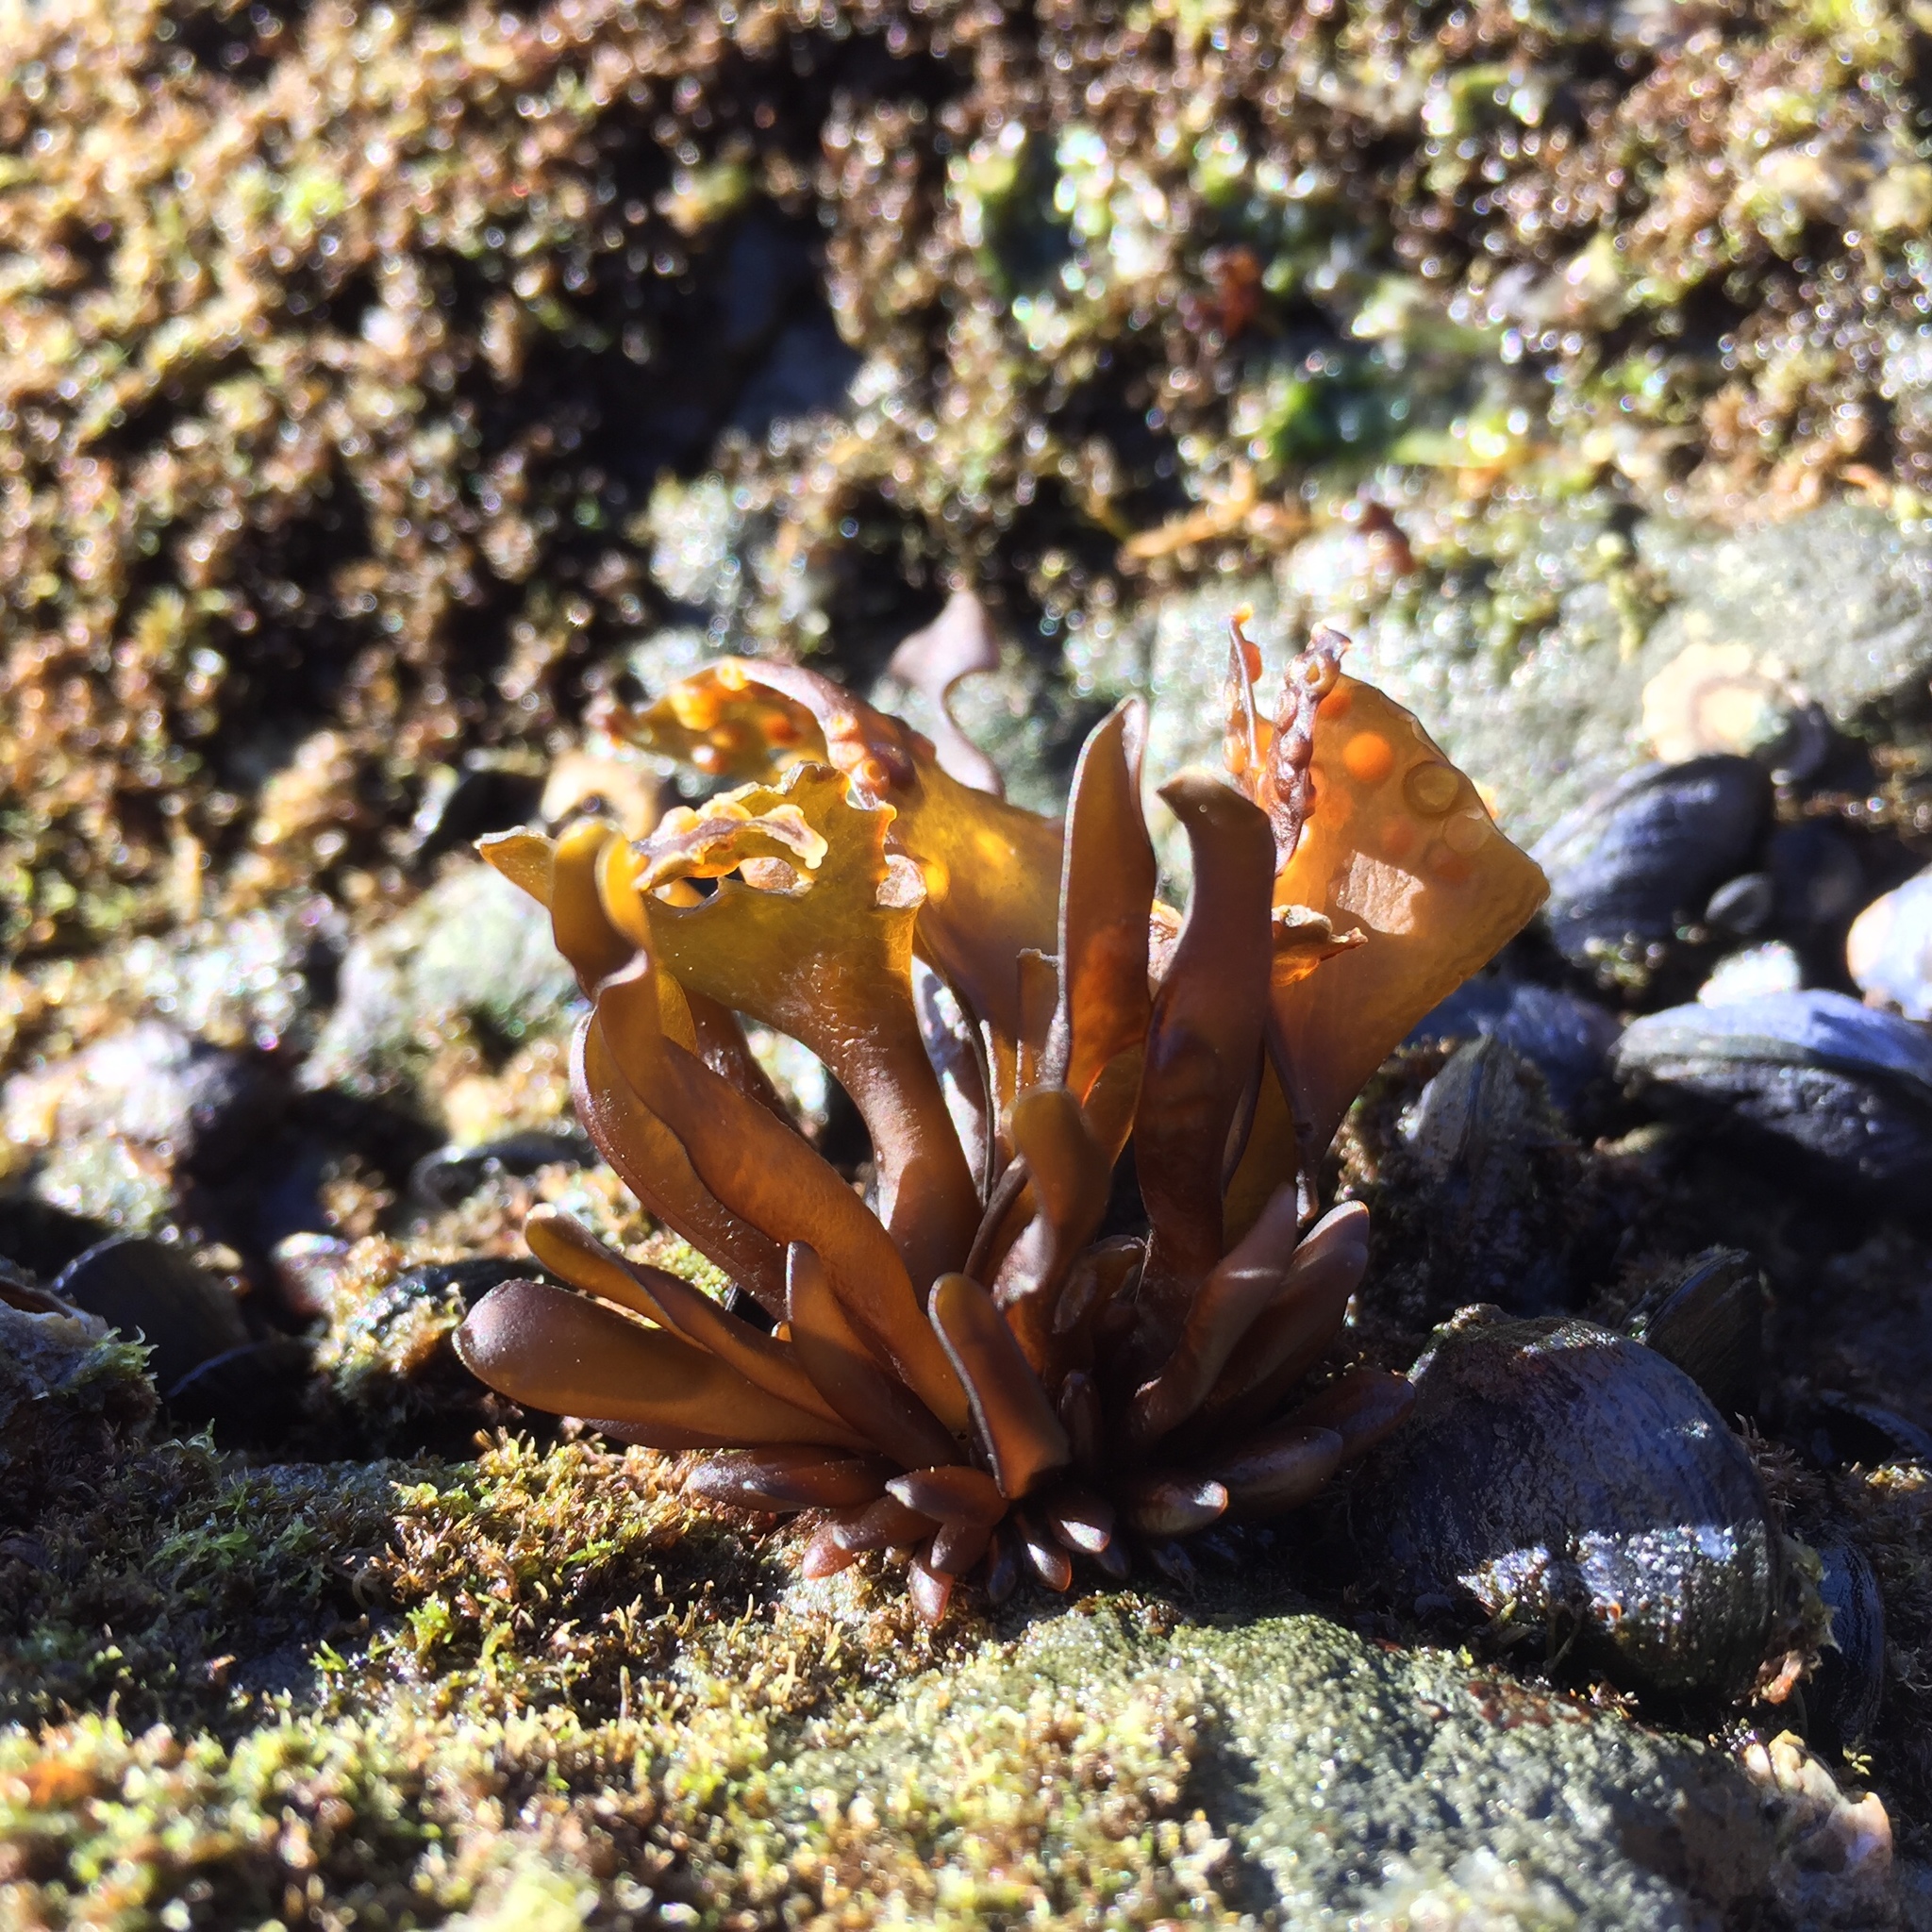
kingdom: Plantae
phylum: Rhodophyta
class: Florideophyceae
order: Gigartinales
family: Gigartinaceae
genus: Mazzaella
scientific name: Mazzaella laminarioides
